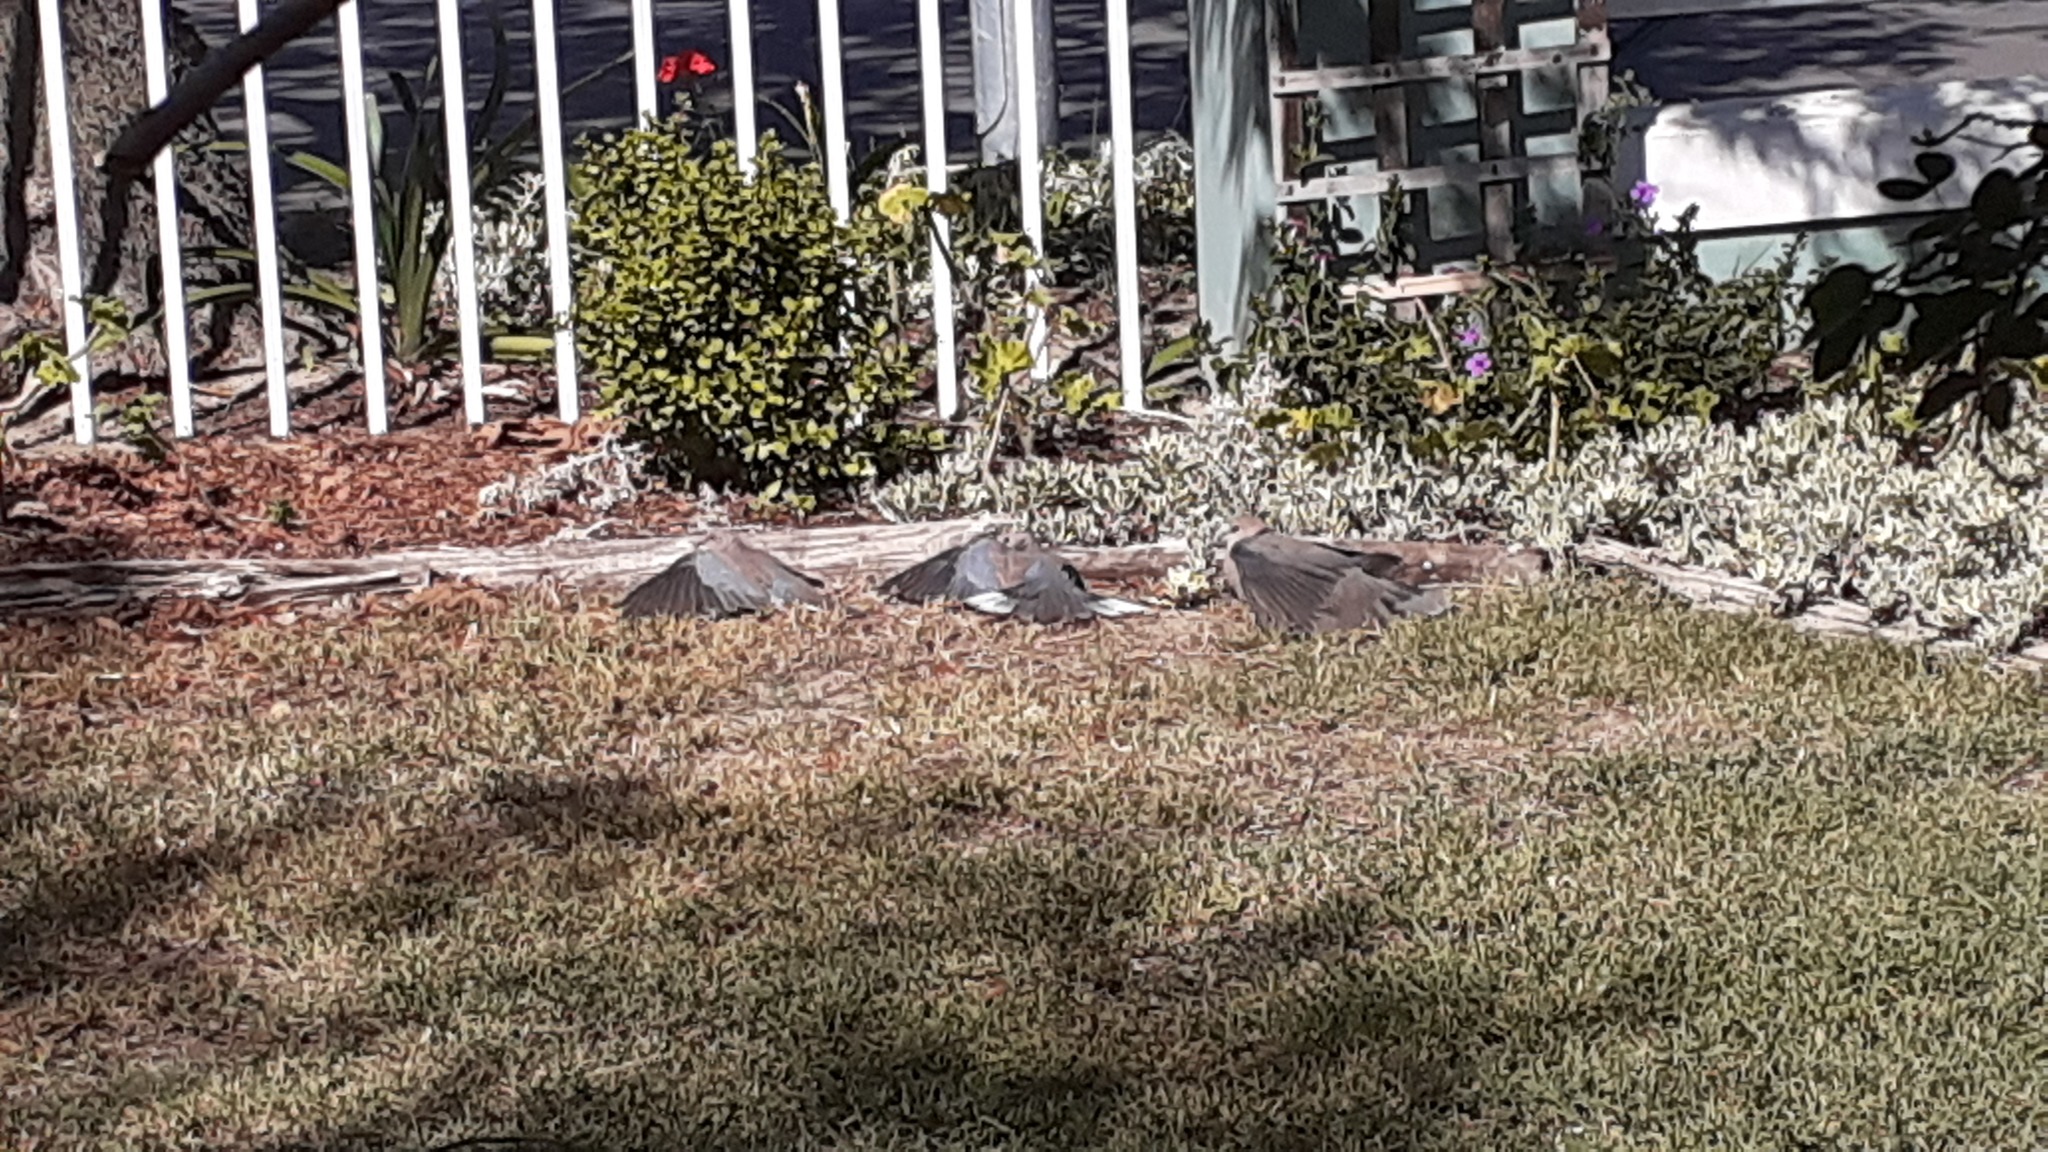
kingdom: Animalia
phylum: Chordata
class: Aves
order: Columbiformes
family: Columbidae
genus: Spilopelia
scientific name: Spilopelia senegalensis
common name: Laughing dove
